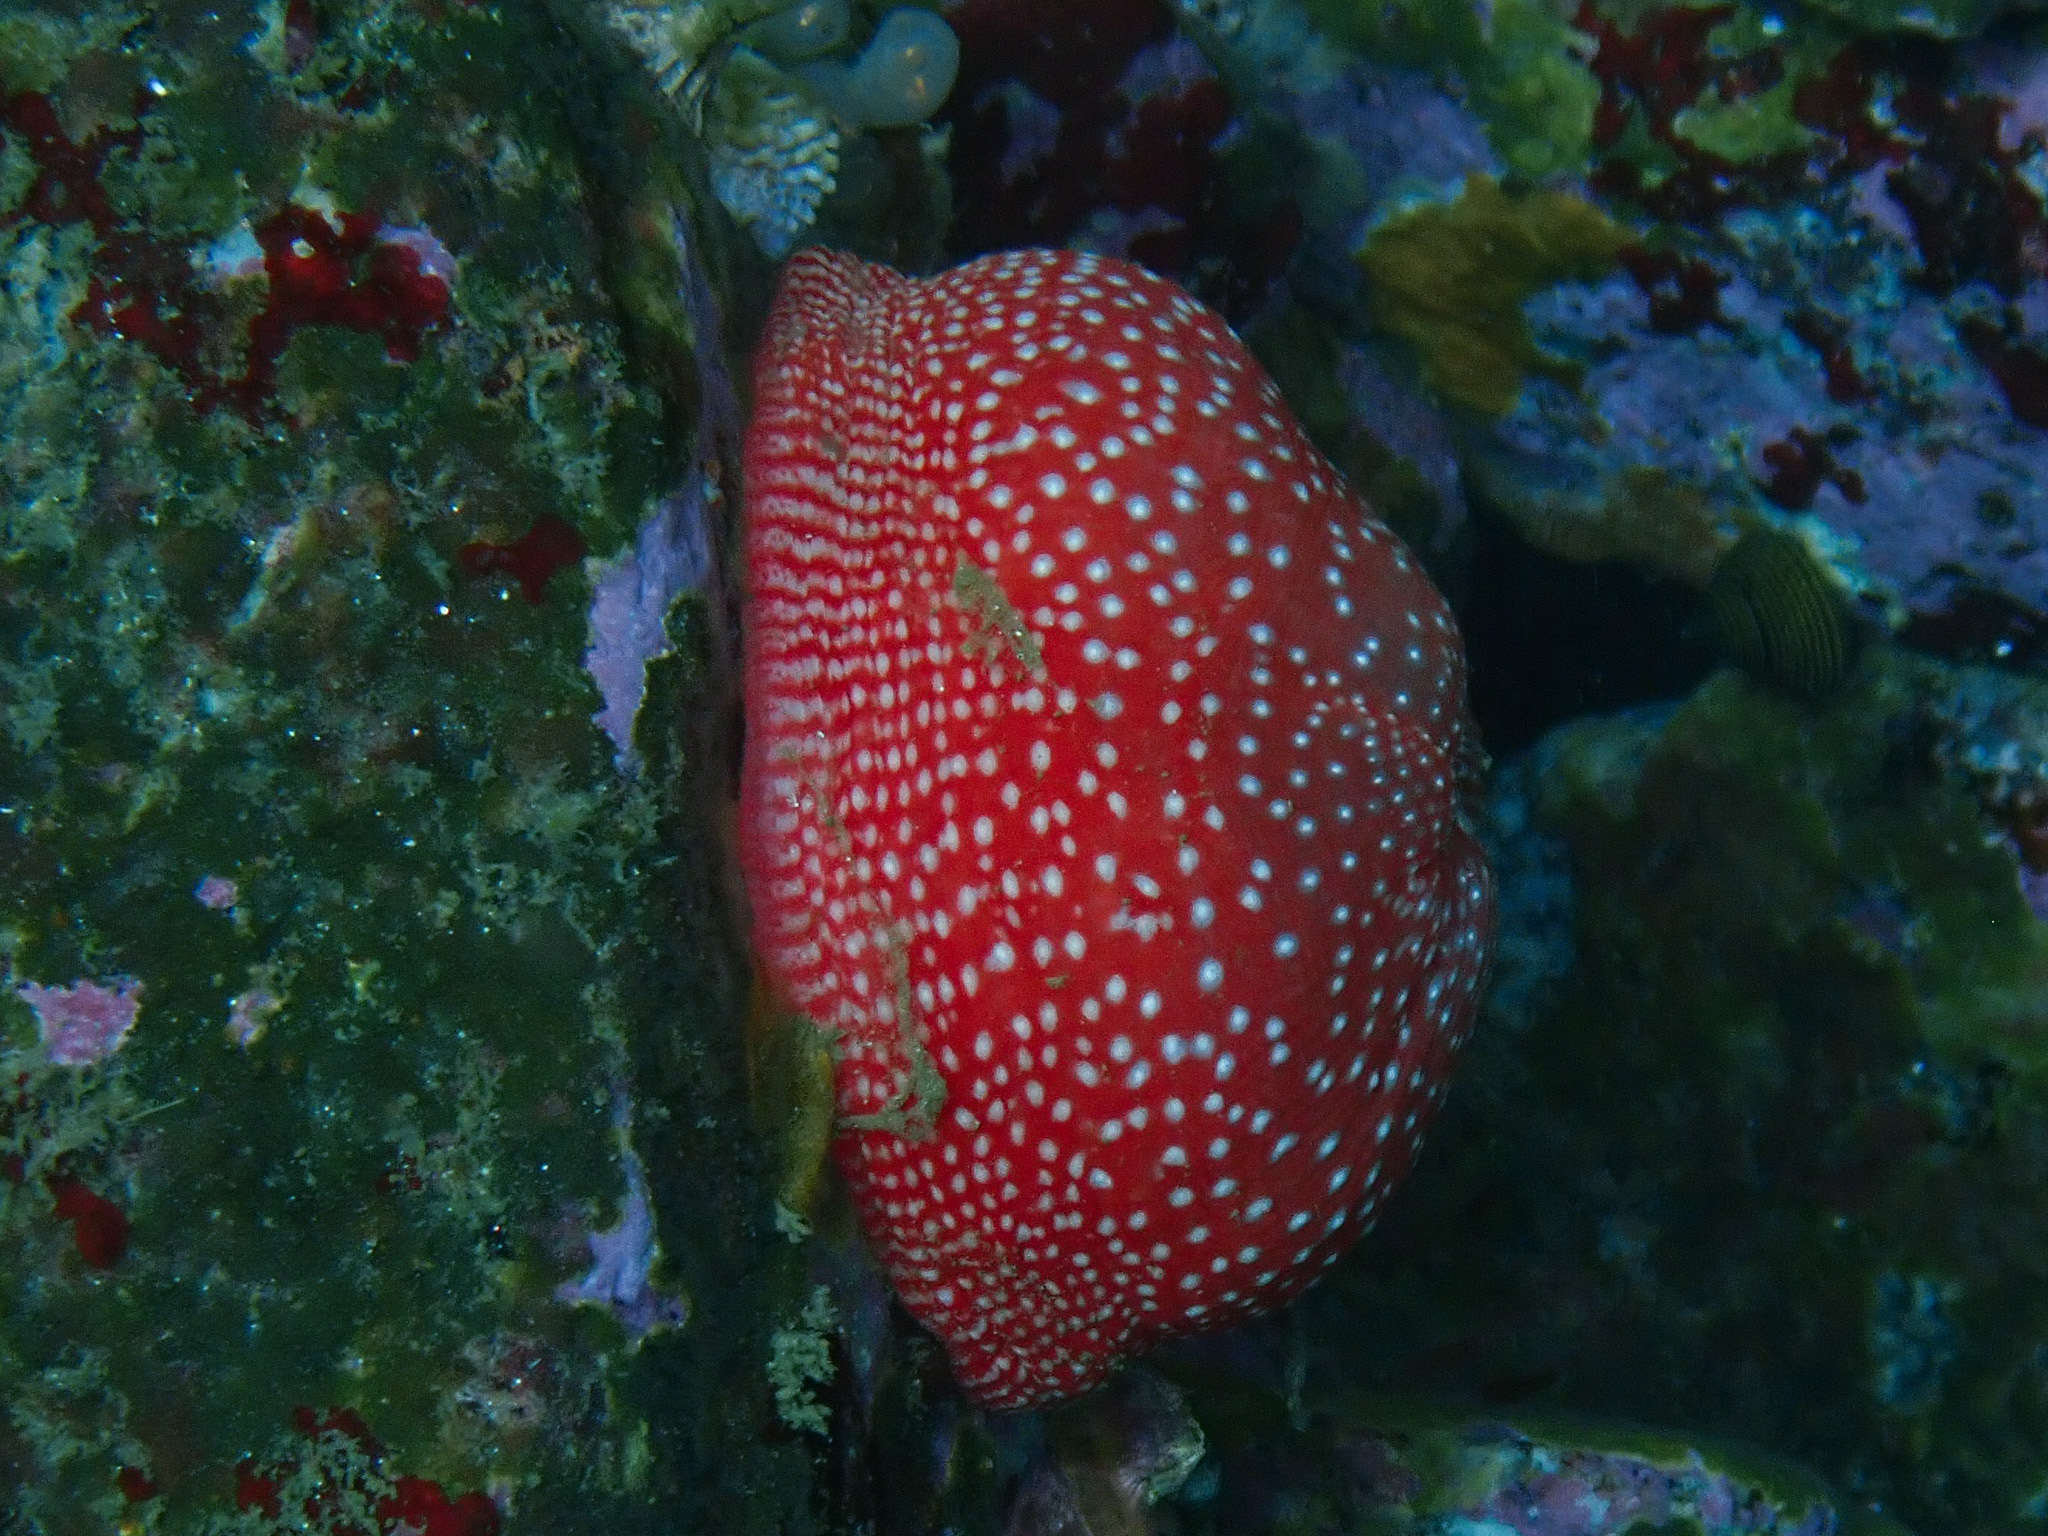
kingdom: Animalia
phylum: Cnidaria
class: Anthozoa
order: Actiniaria
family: Actiniidae
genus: Cribrinopsis
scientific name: Cribrinopsis albopunctata
